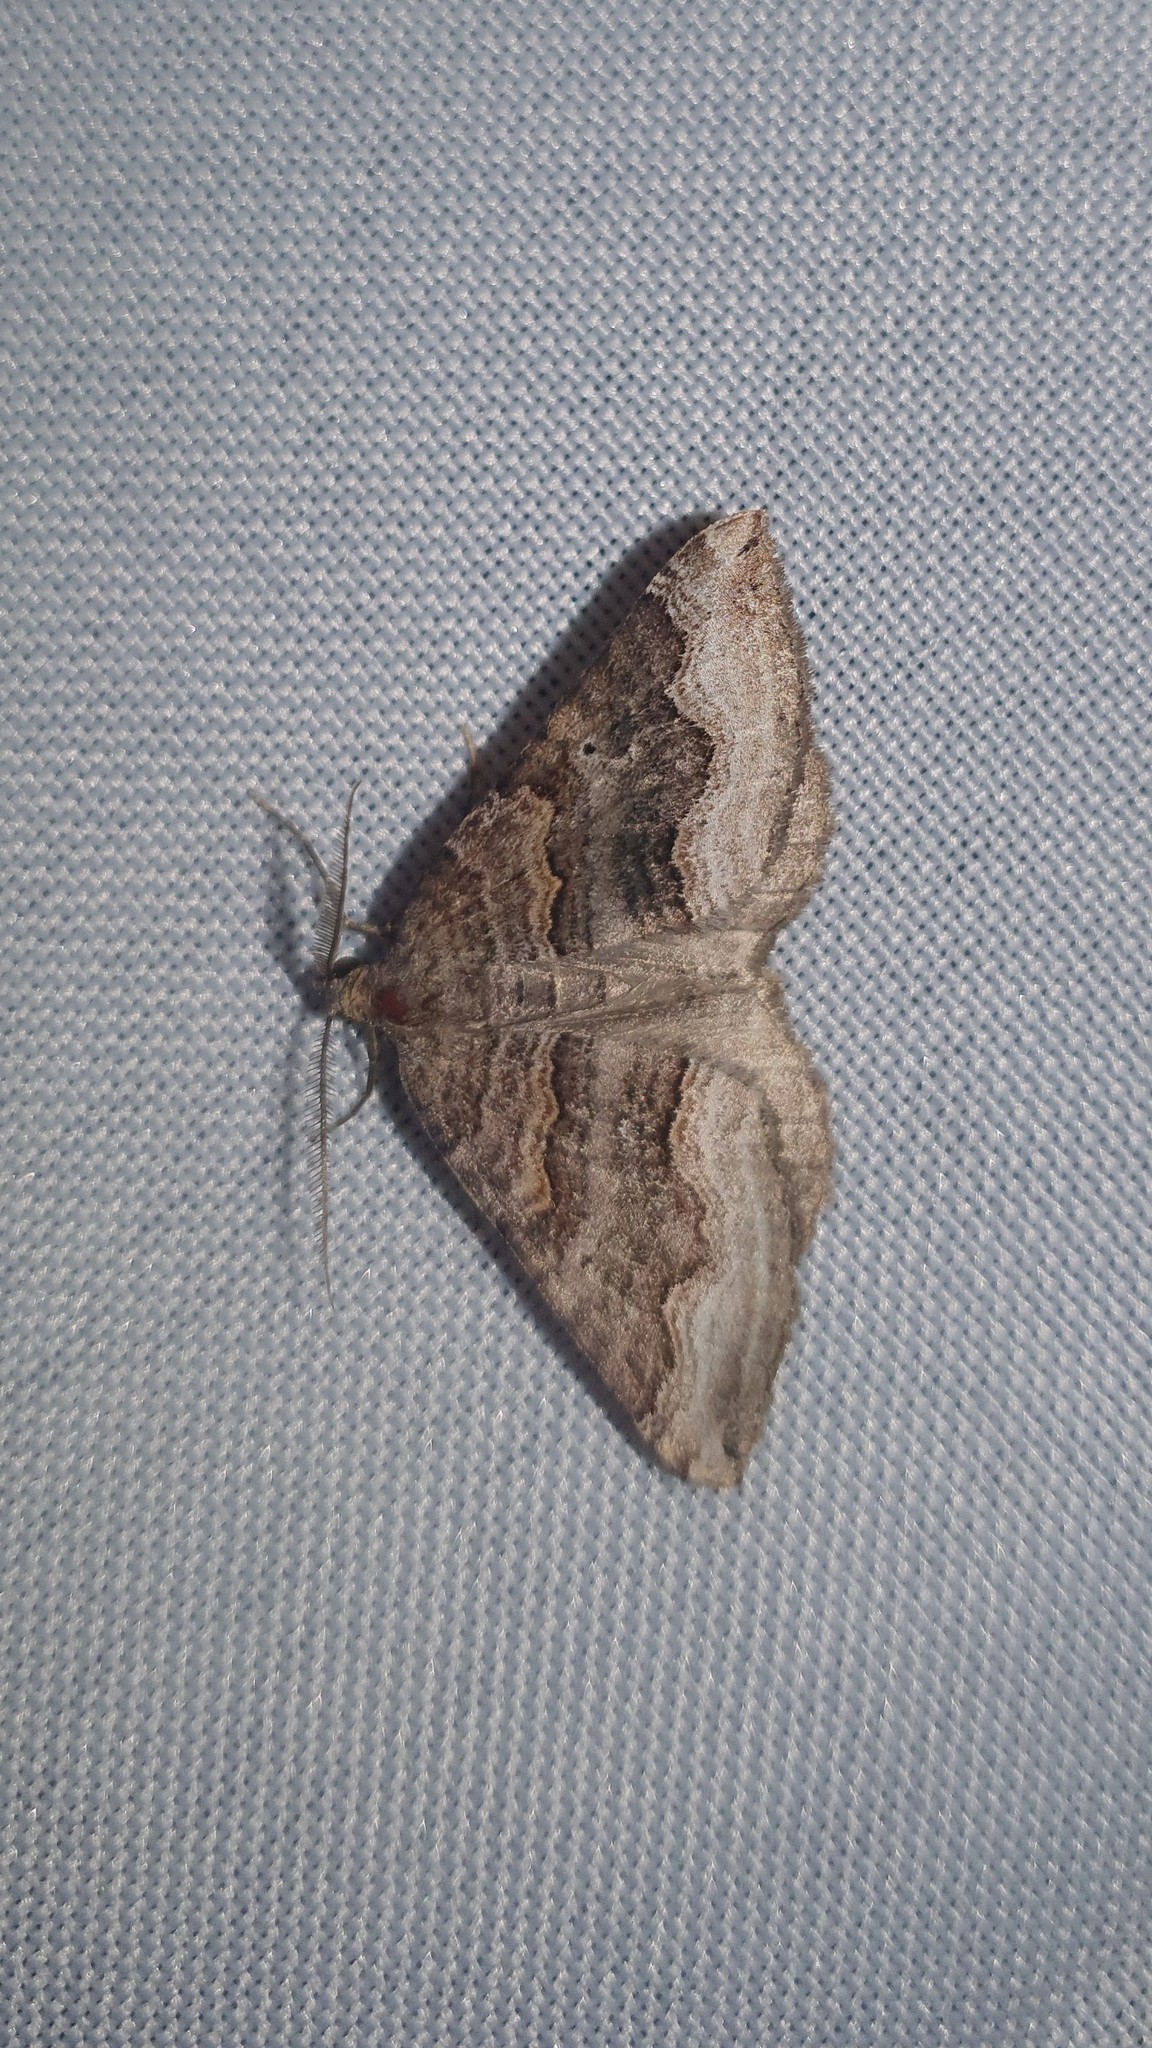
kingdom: Animalia
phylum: Arthropoda
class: Insecta
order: Lepidoptera
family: Geometridae
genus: Scotopteryx
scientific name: Scotopteryx coelinaria
